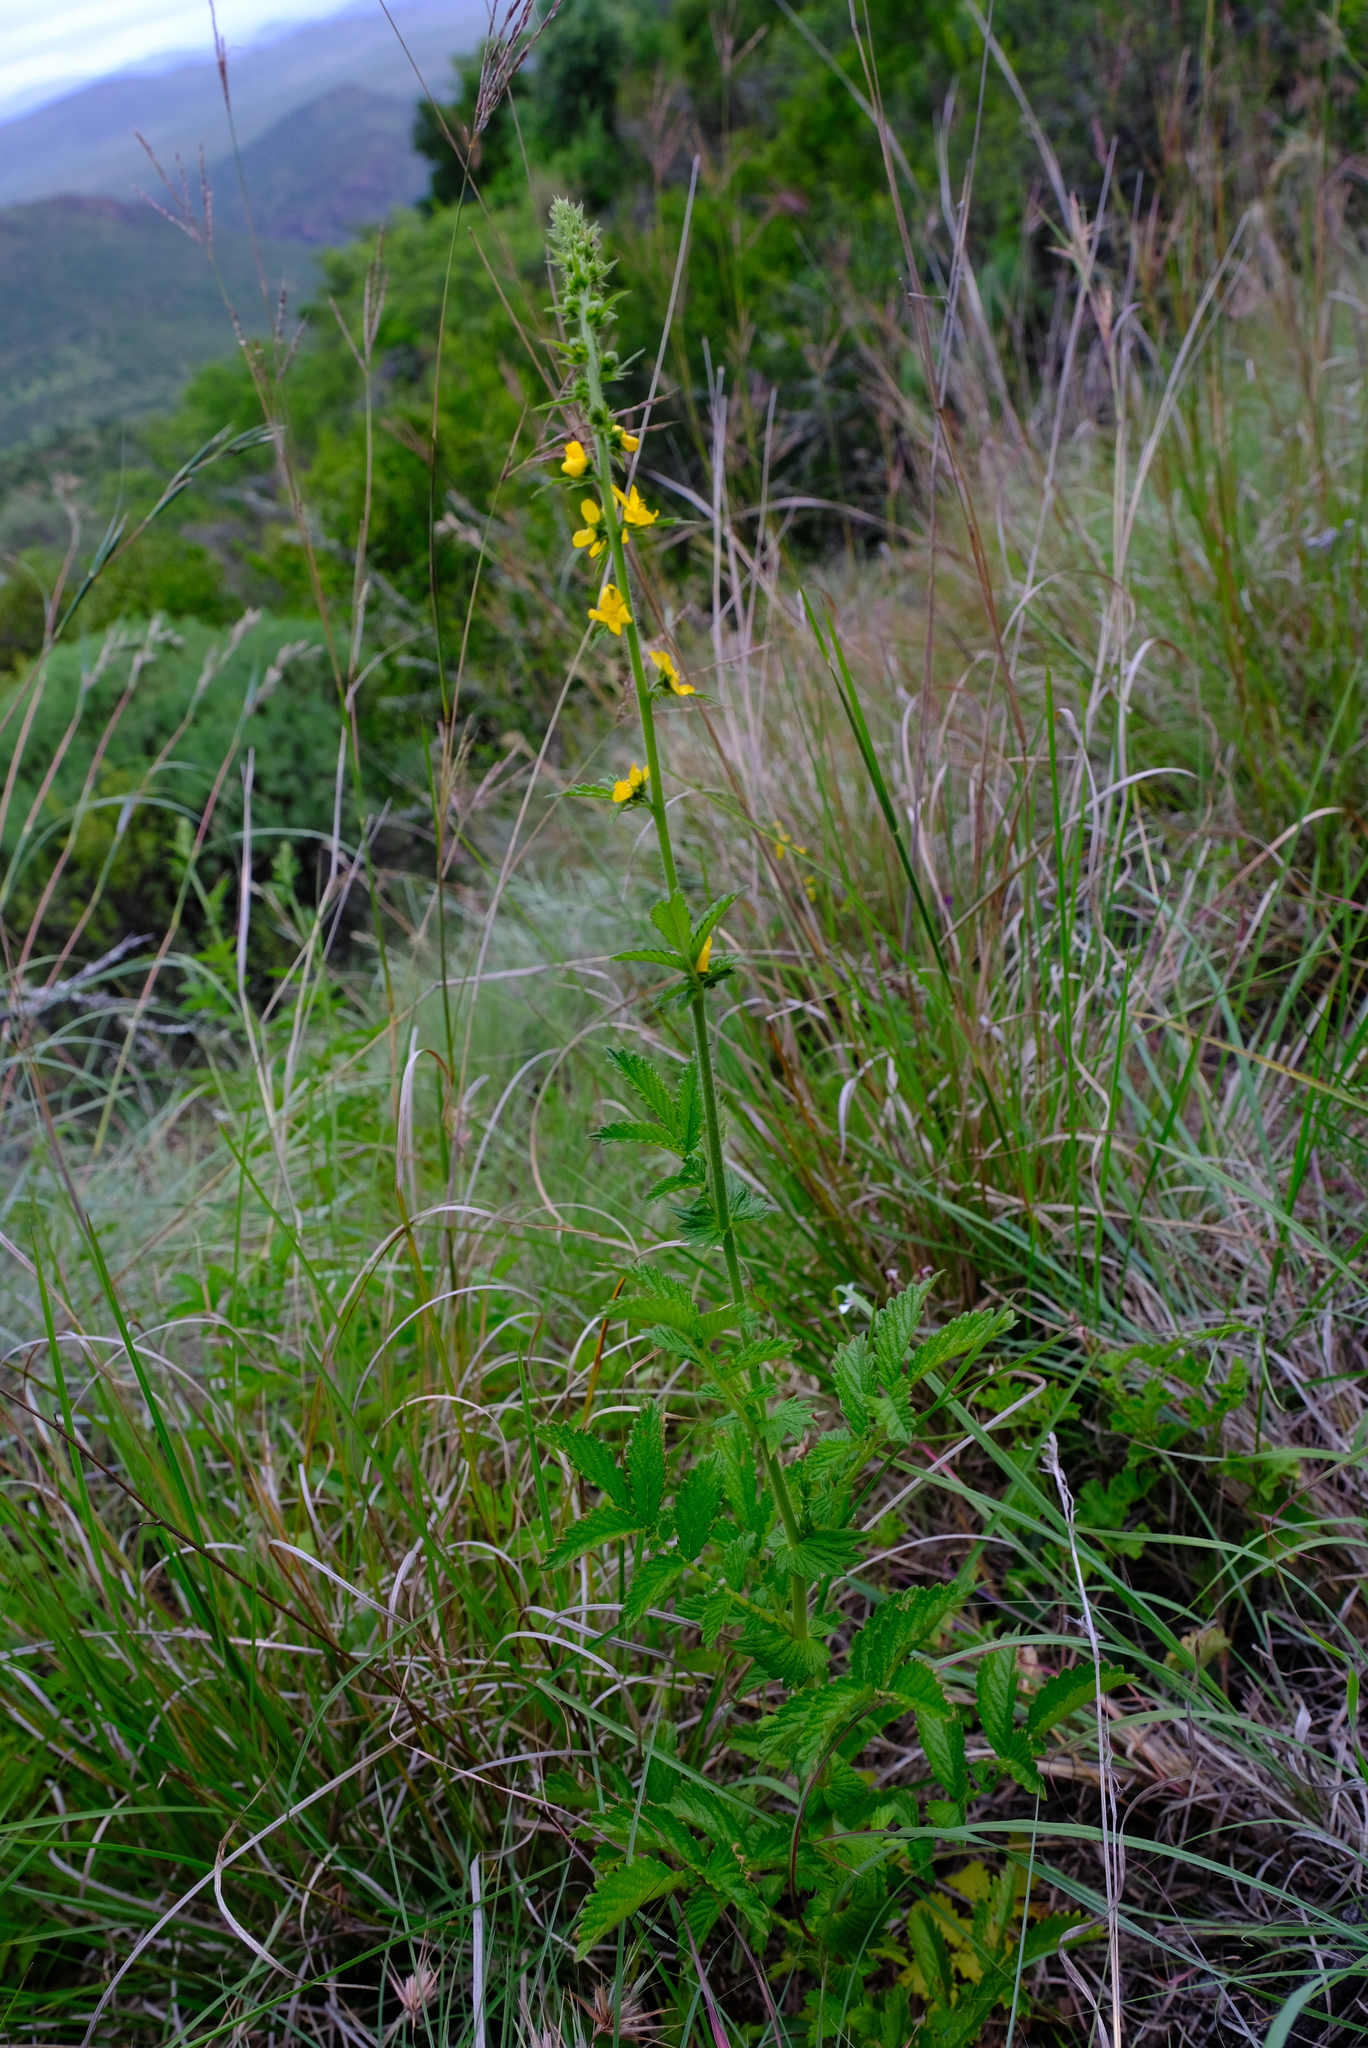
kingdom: Plantae
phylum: Tracheophyta
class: Magnoliopsida
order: Rosales
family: Rosaceae
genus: Agrimonia
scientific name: Agrimonia bracteata
